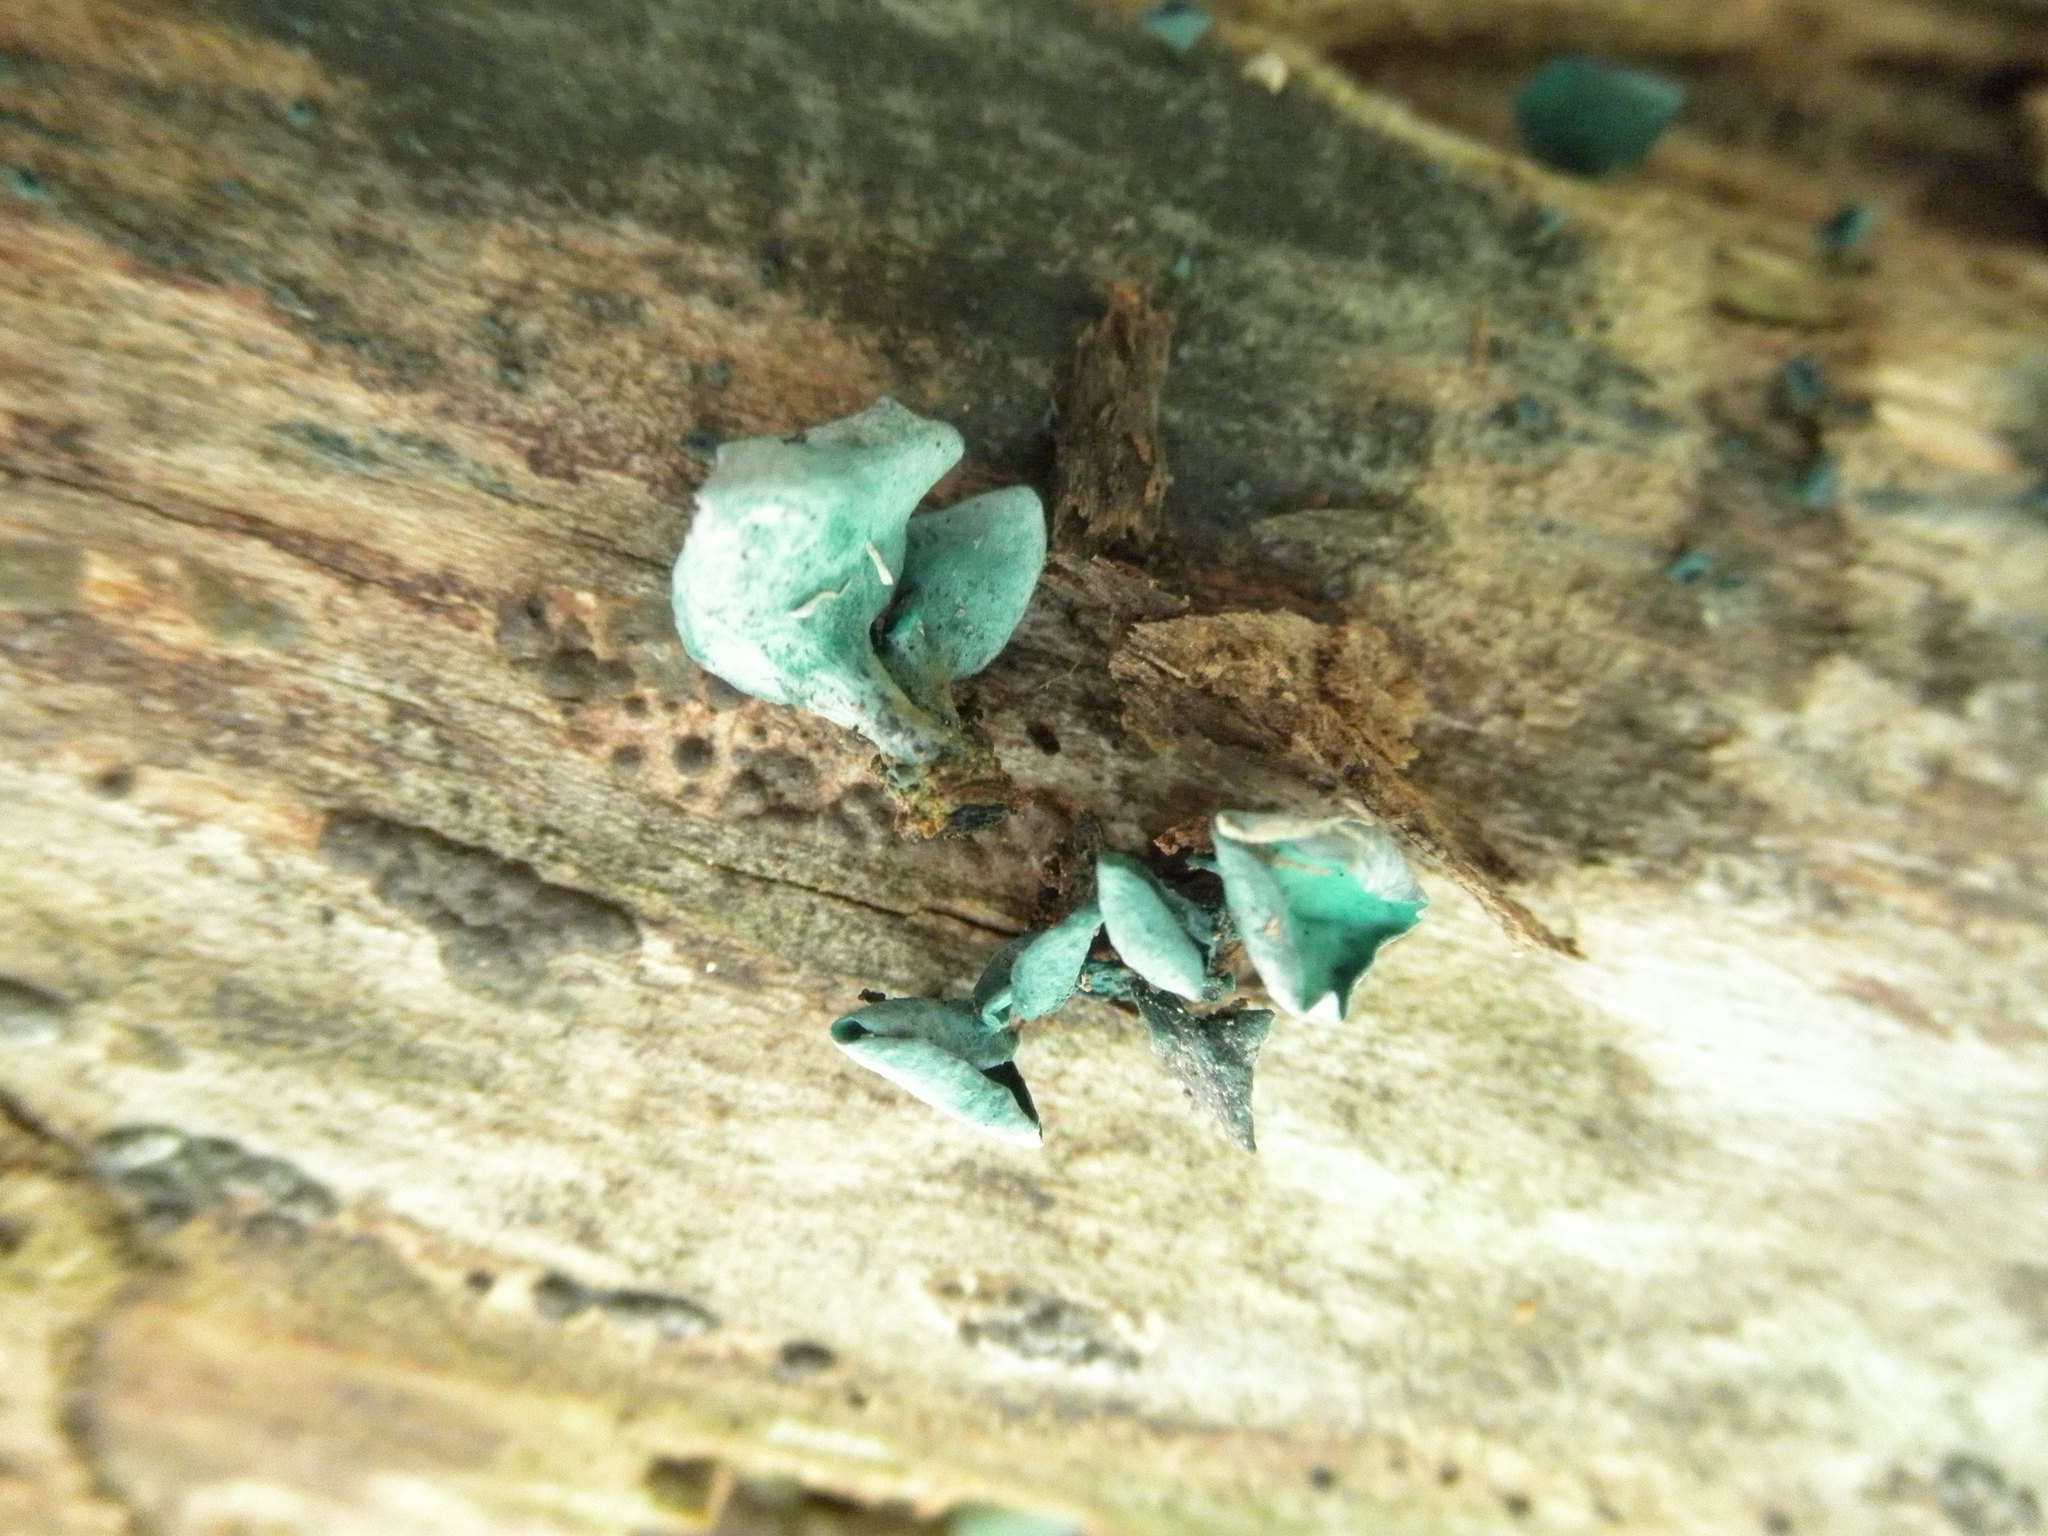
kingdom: Fungi
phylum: Ascomycota
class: Leotiomycetes
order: Helotiales
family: Chlorociboriaceae
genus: Chlorociboria
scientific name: Chlorociboria
